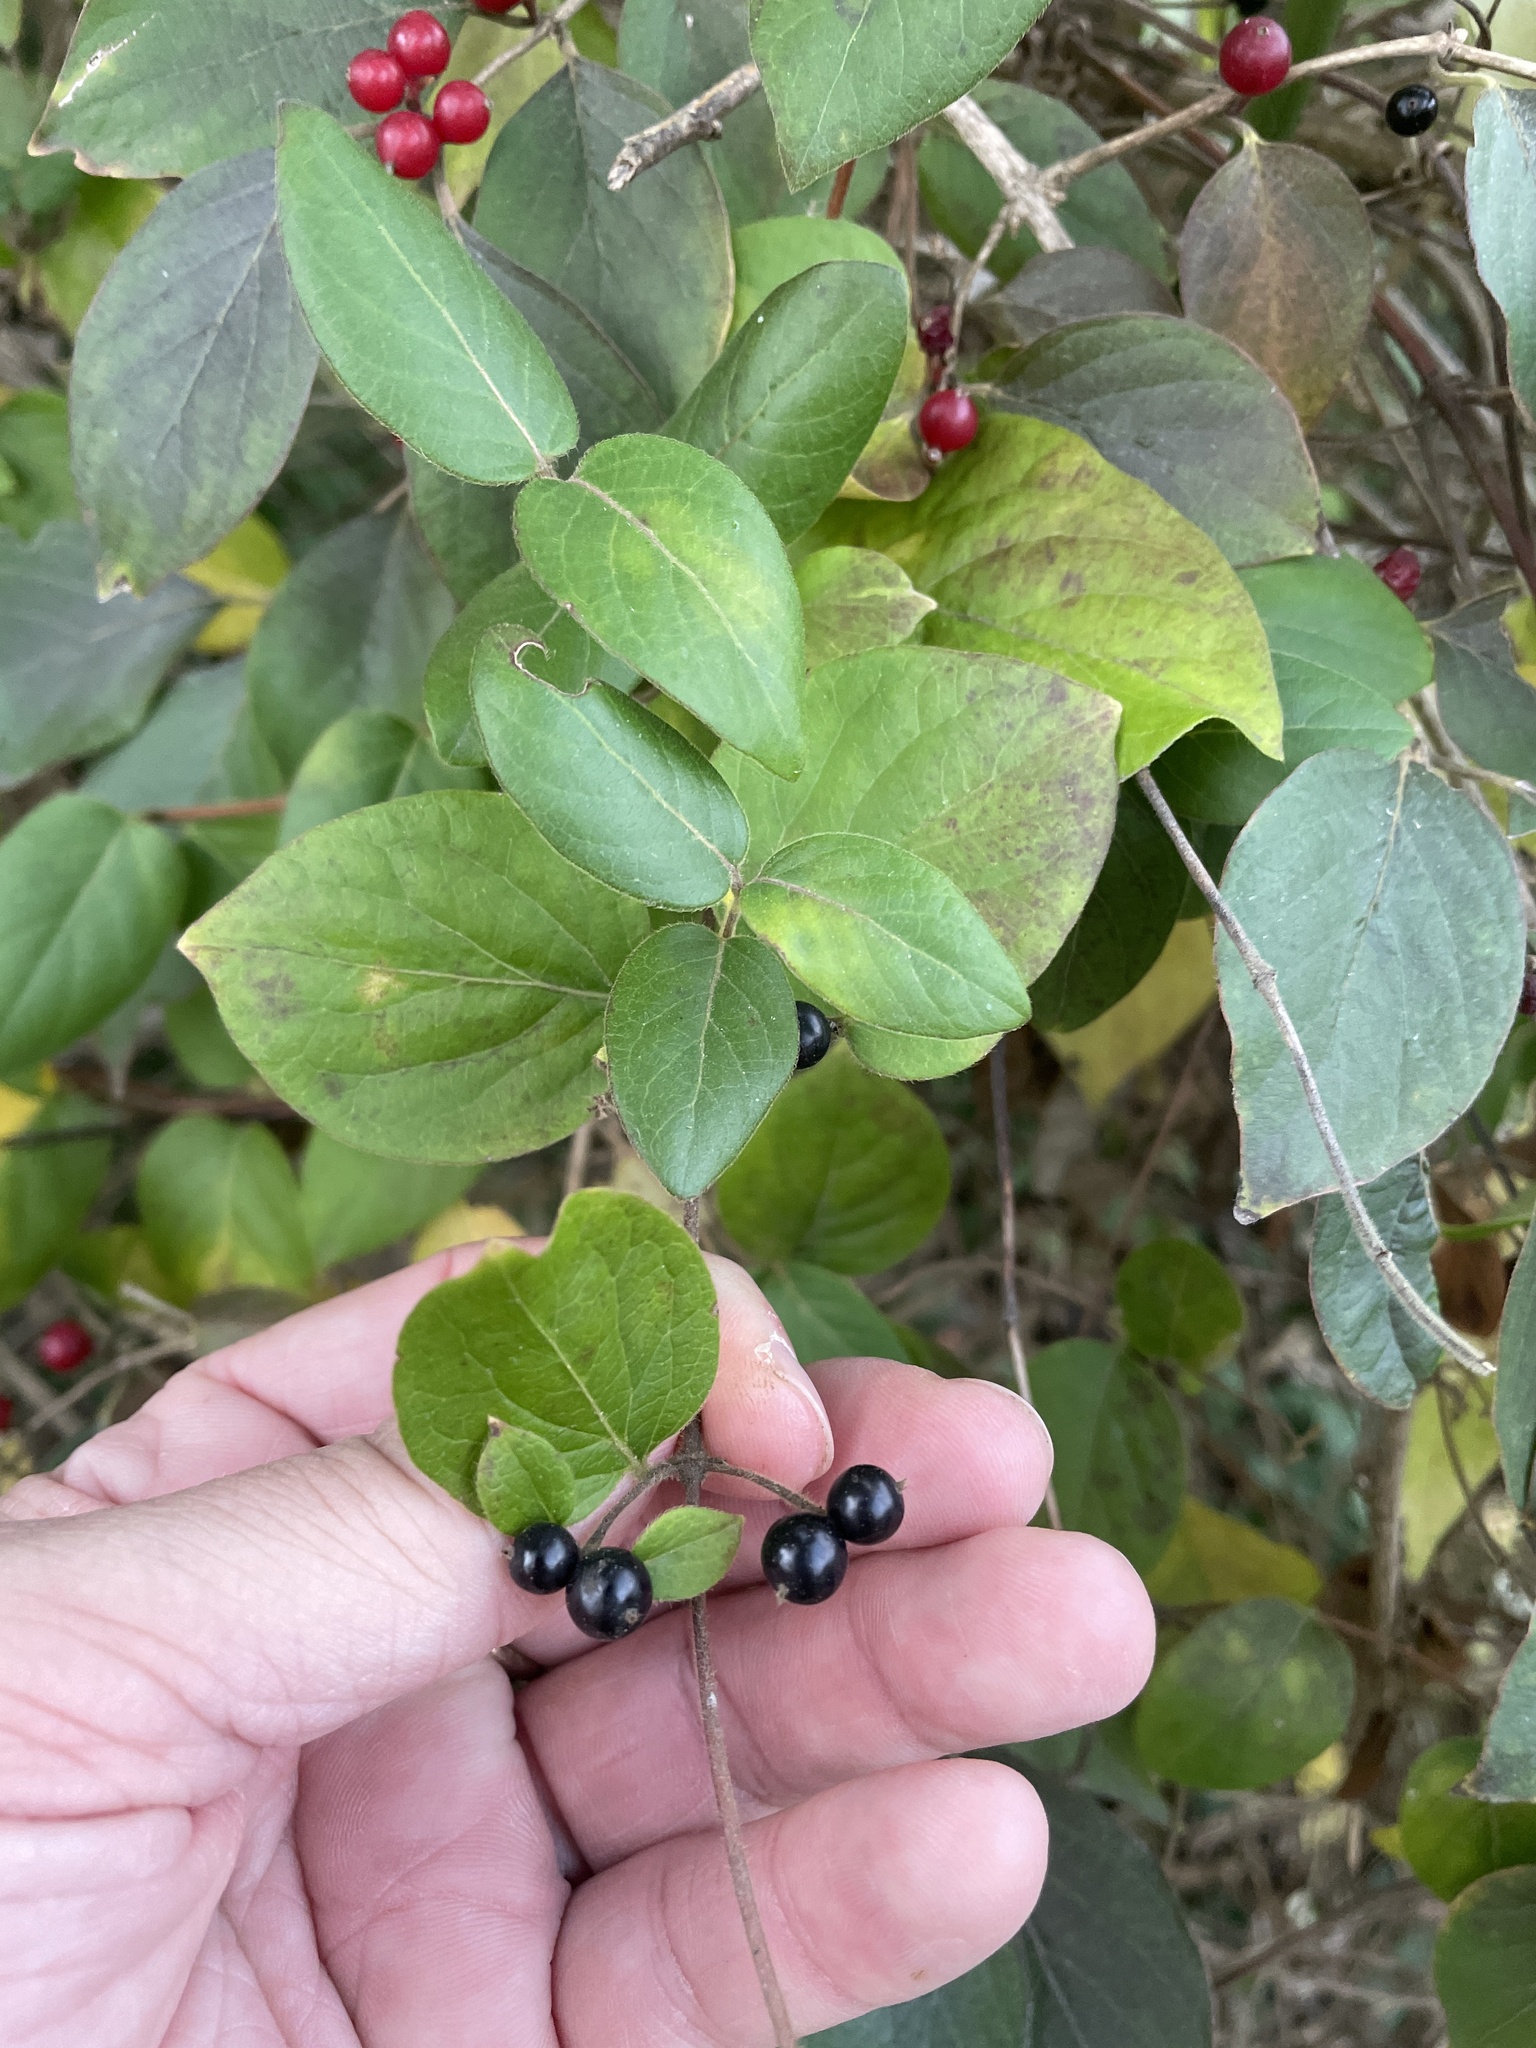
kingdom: Plantae
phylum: Tracheophyta
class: Magnoliopsida
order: Dipsacales
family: Caprifoliaceae
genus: Lonicera
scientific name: Lonicera japonica
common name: Japanese honeysuckle
